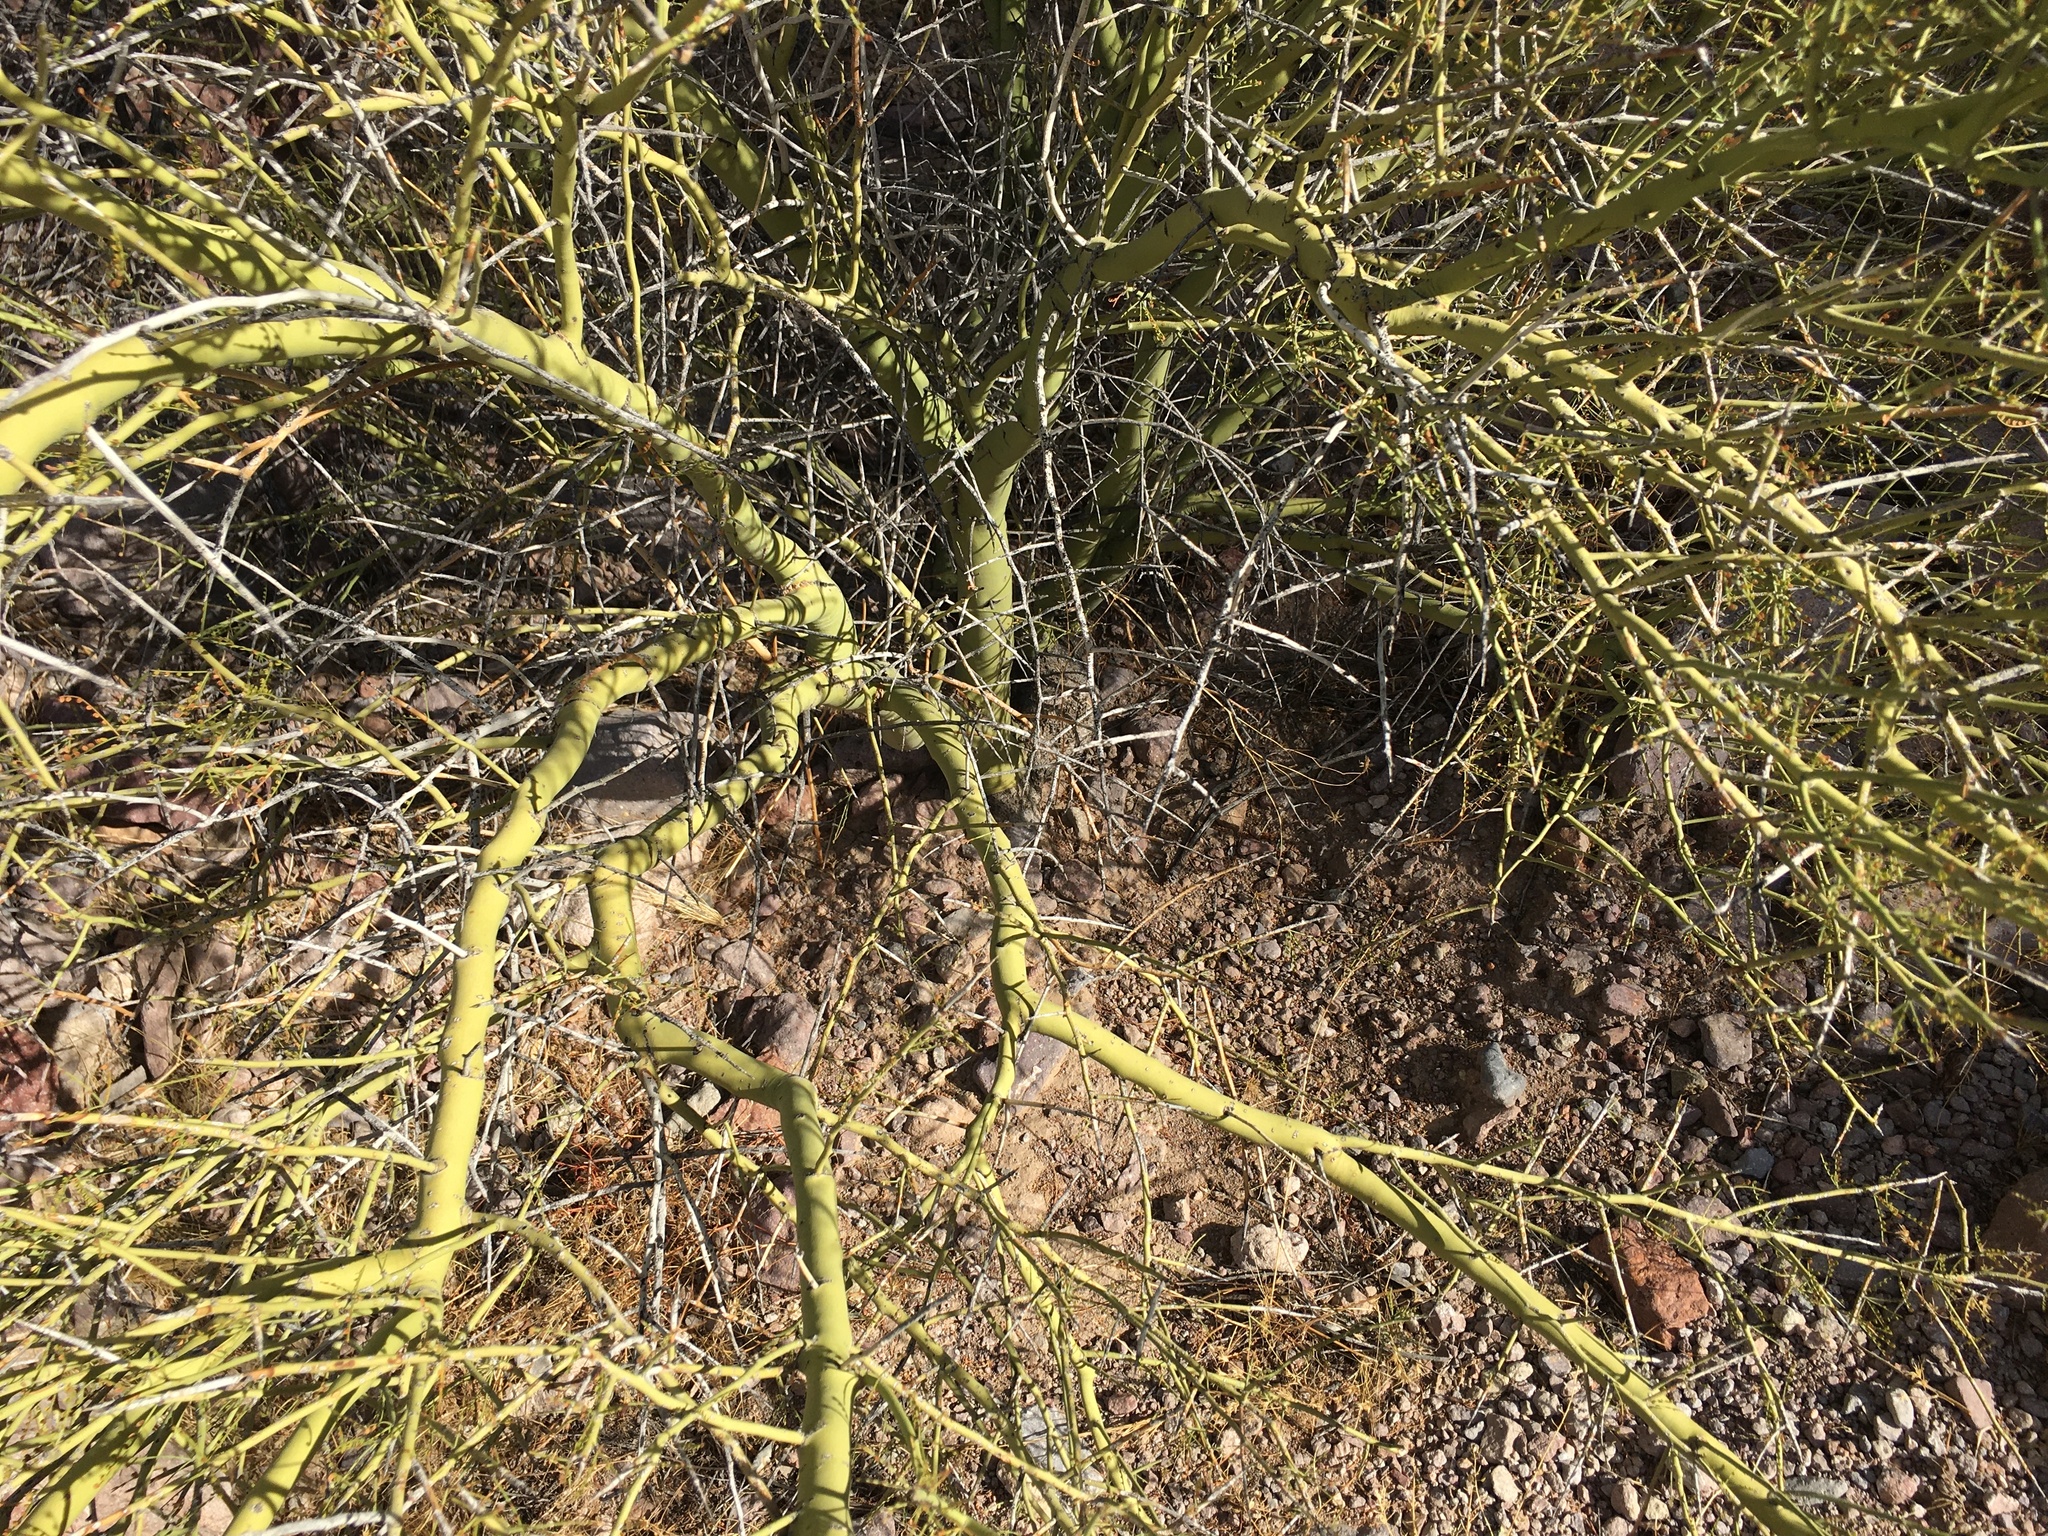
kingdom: Plantae
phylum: Tracheophyta
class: Magnoliopsida
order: Fabales
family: Fabaceae
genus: Parkinsonia
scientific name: Parkinsonia microphylla
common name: Yellow paloverde
